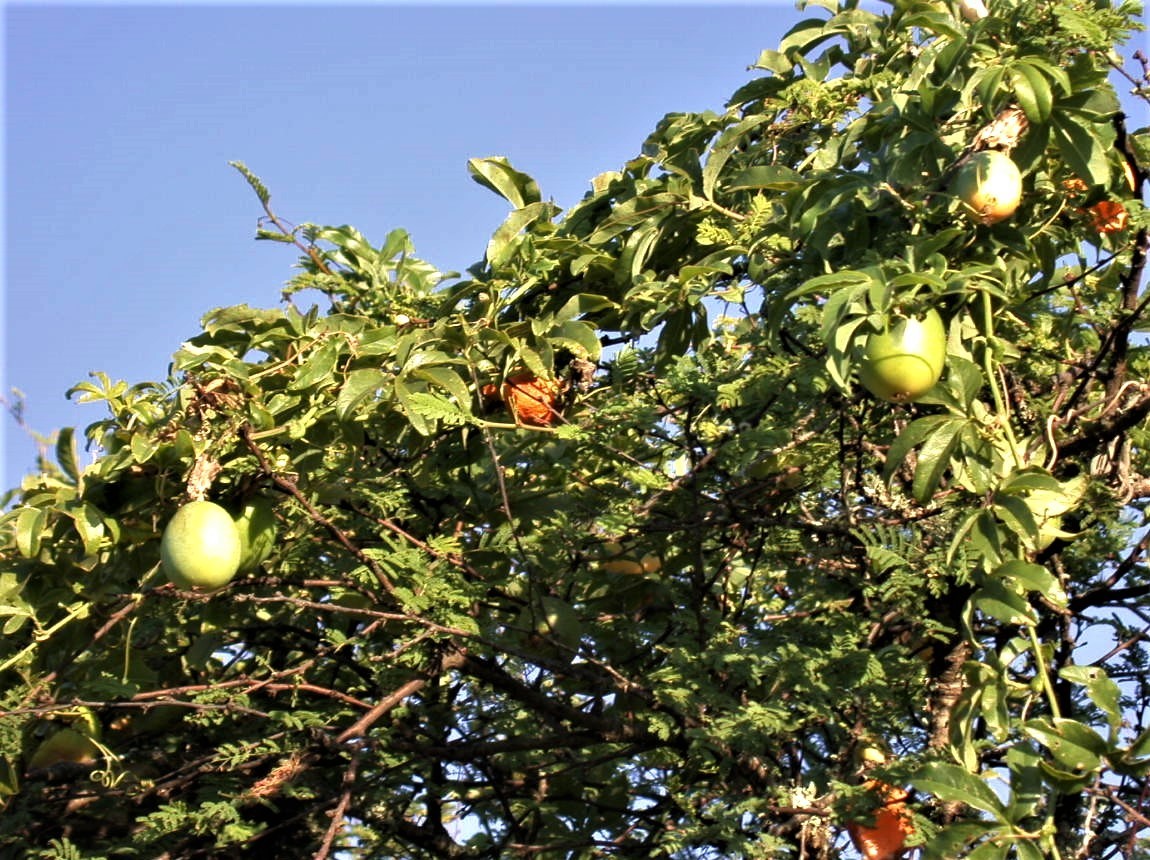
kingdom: Plantae
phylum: Tracheophyta
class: Magnoliopsida
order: Malpighiales
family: Passifloraceae
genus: Passiflora
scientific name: Passiflora caerulea
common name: Blue passionflower
